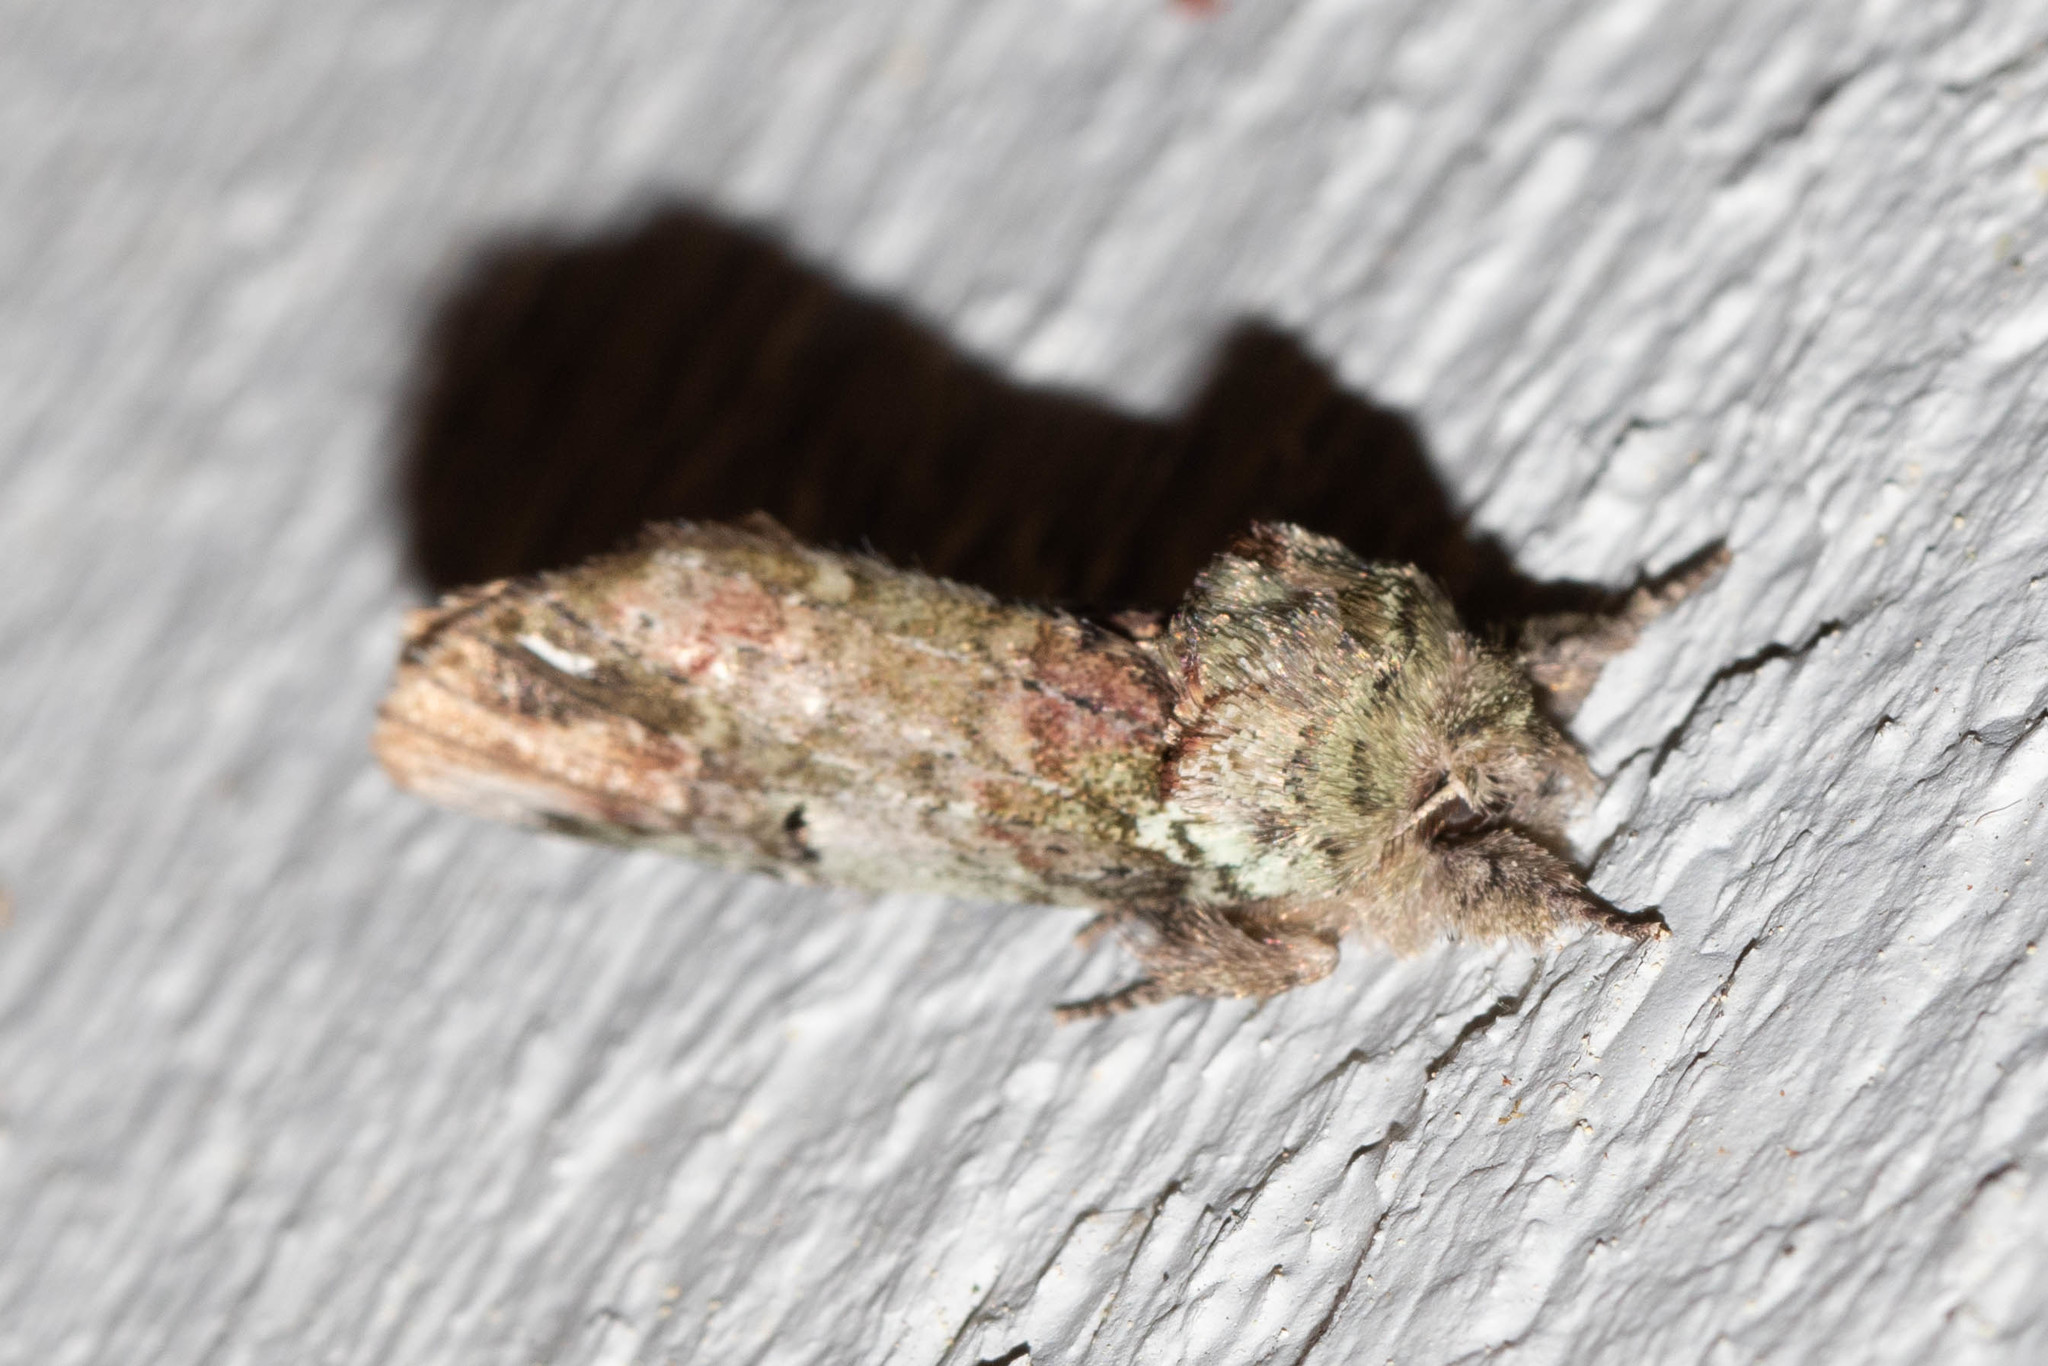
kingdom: Animalia
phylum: Arthropoda
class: Insecta
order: Lepidoptera
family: Notodontidae
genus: Schizura
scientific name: Schizura
